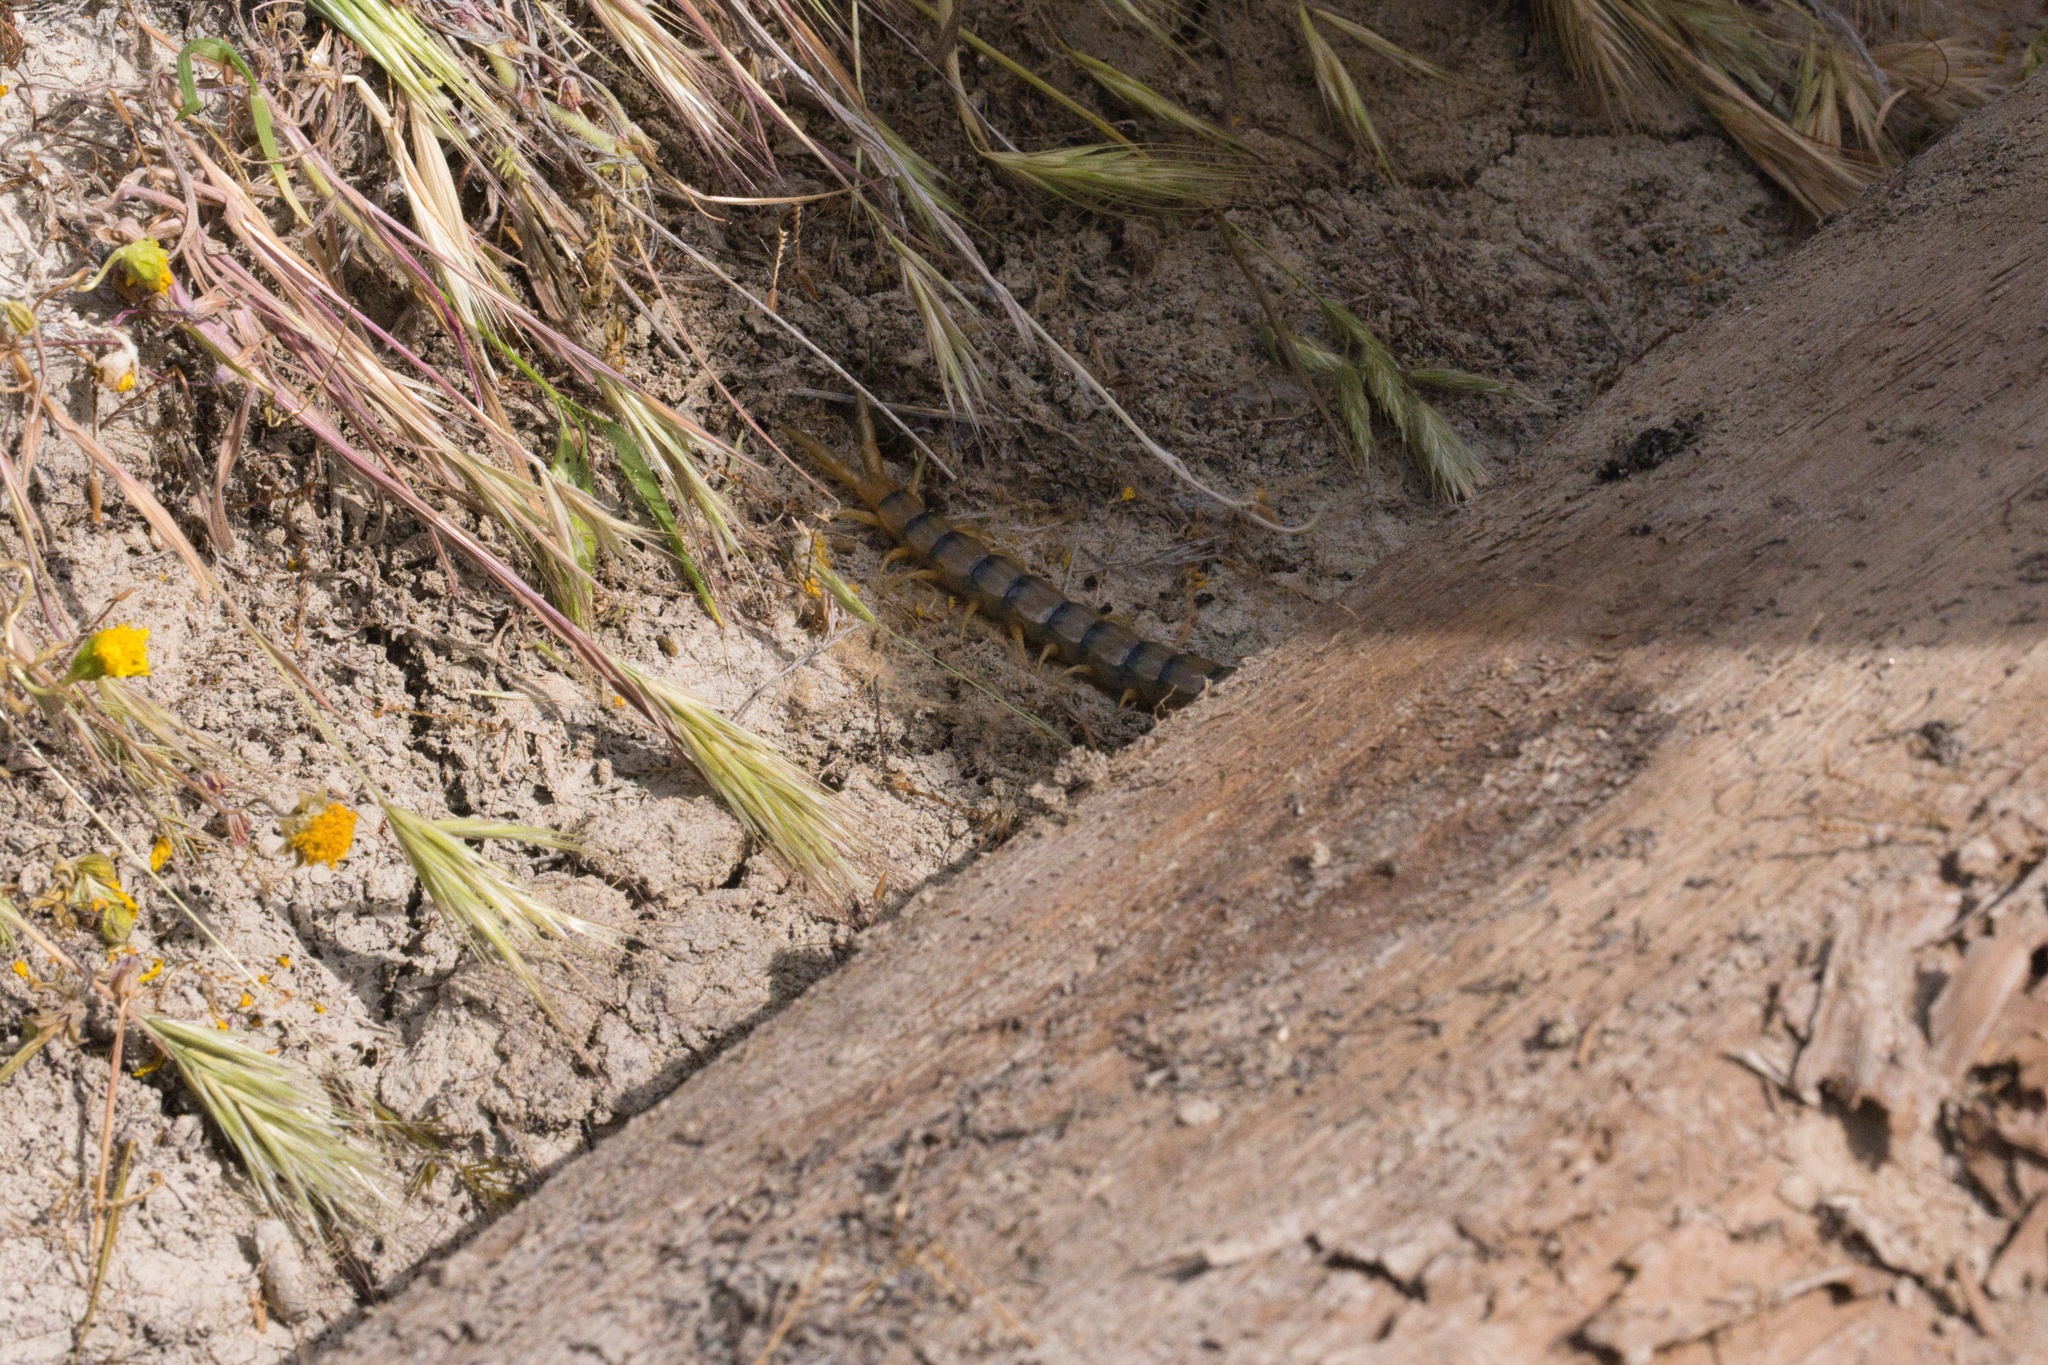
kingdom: Animalia
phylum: Arthropoda
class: Chilopoda
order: Scolopendromorpha
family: Scolopendridae
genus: Scolopendra
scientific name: Scolopendra polymorpha
